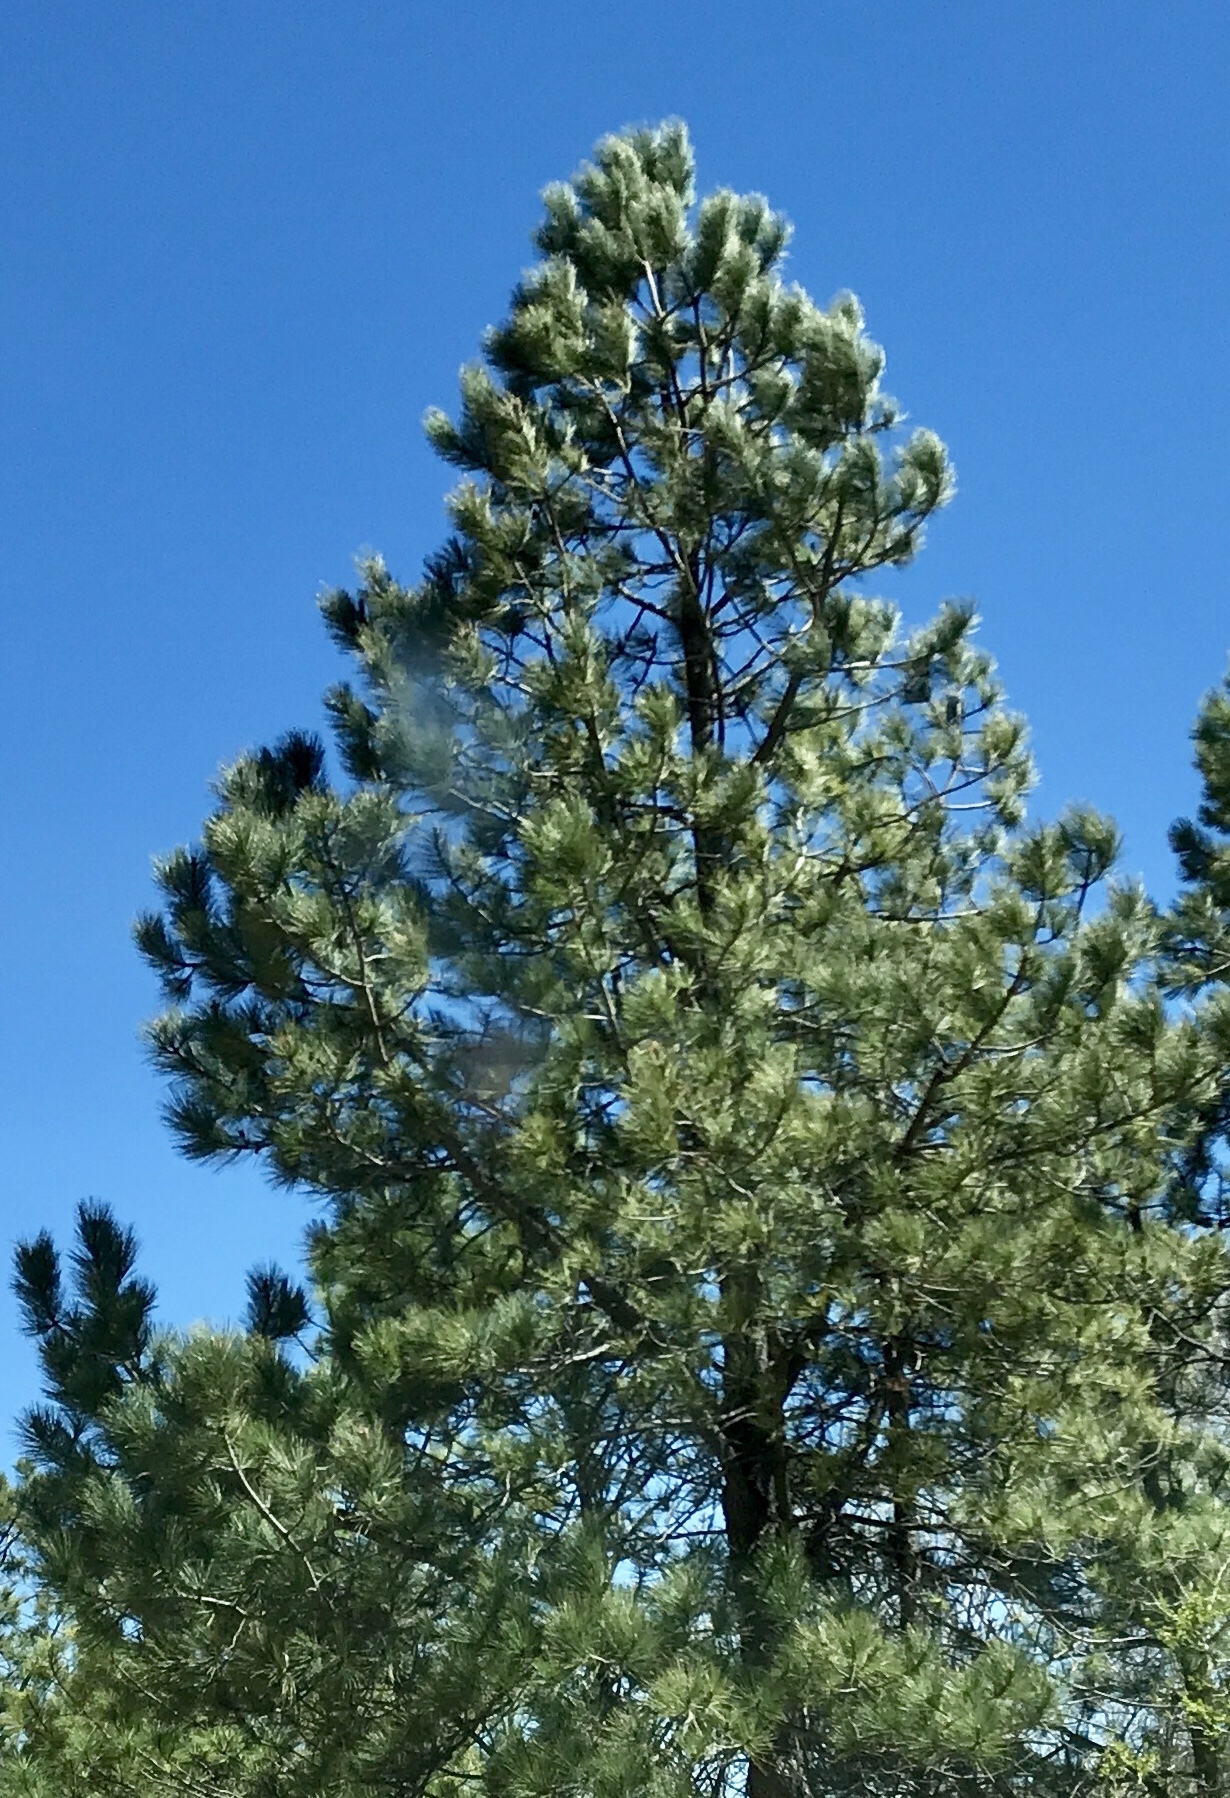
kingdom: Plantae
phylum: Tracheophyta
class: Pinopsida
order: Pinales
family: Pinaceae
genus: Pinus
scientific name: Pinus ponderosa
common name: Western yellow-pine
